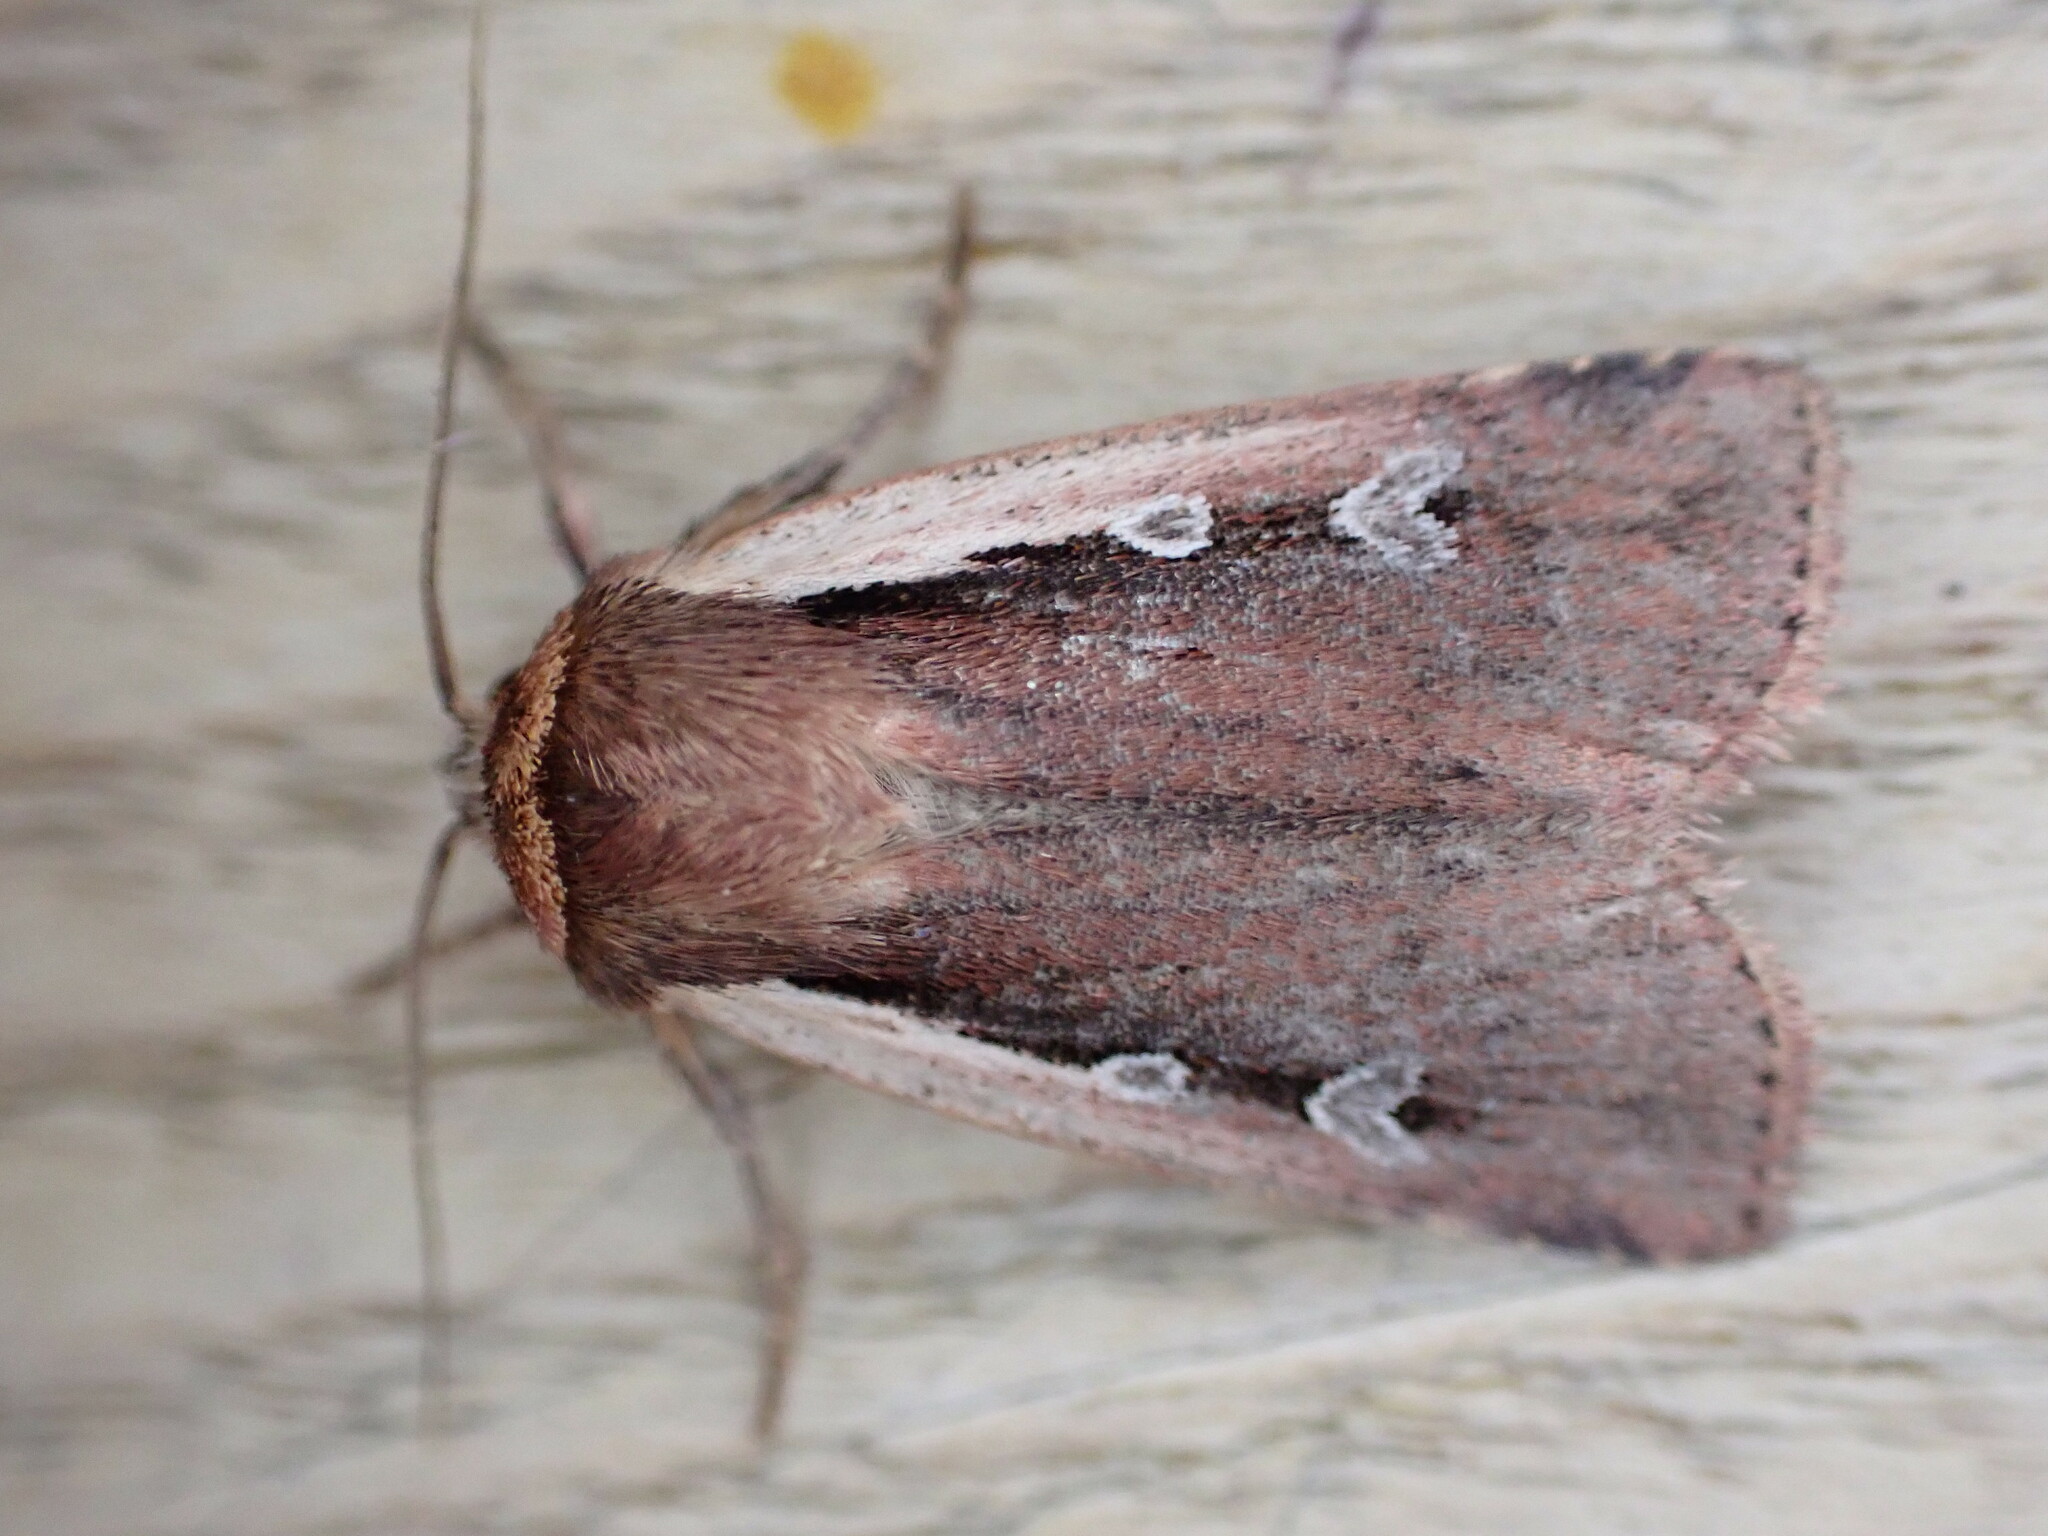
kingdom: Animalia
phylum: Arthropoda
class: Insecta
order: Lepidoptera
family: Noctuidae
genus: Ochropleura
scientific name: Ochropleura plecta
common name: Flame shoulder
